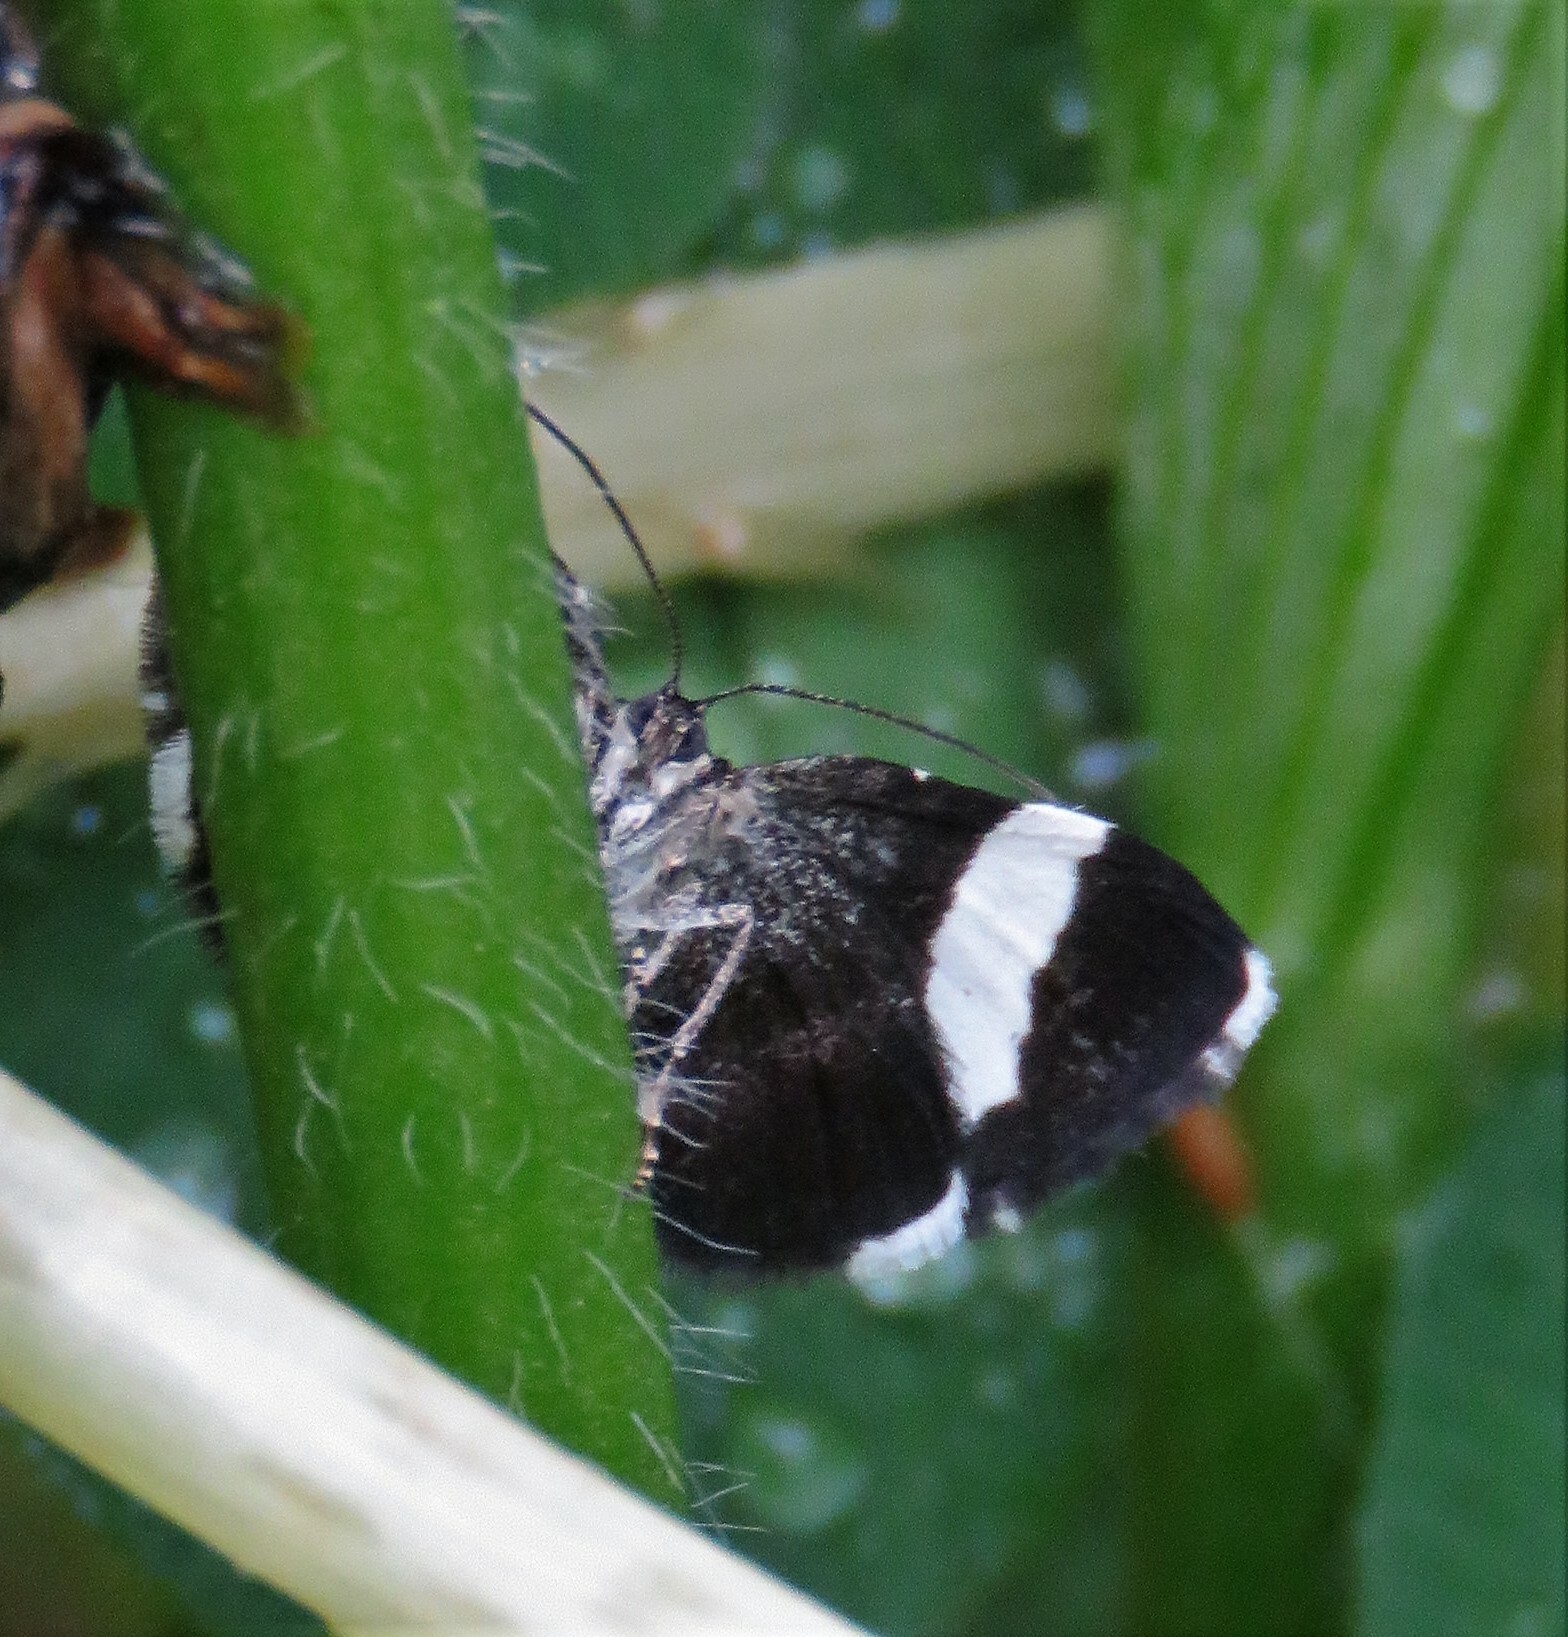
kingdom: Animalia
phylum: Arthropoda
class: Insecta
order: Lepidoptera
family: Geometridae
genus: Trichodezia
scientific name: Trichodezia albovittata
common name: White striped black
